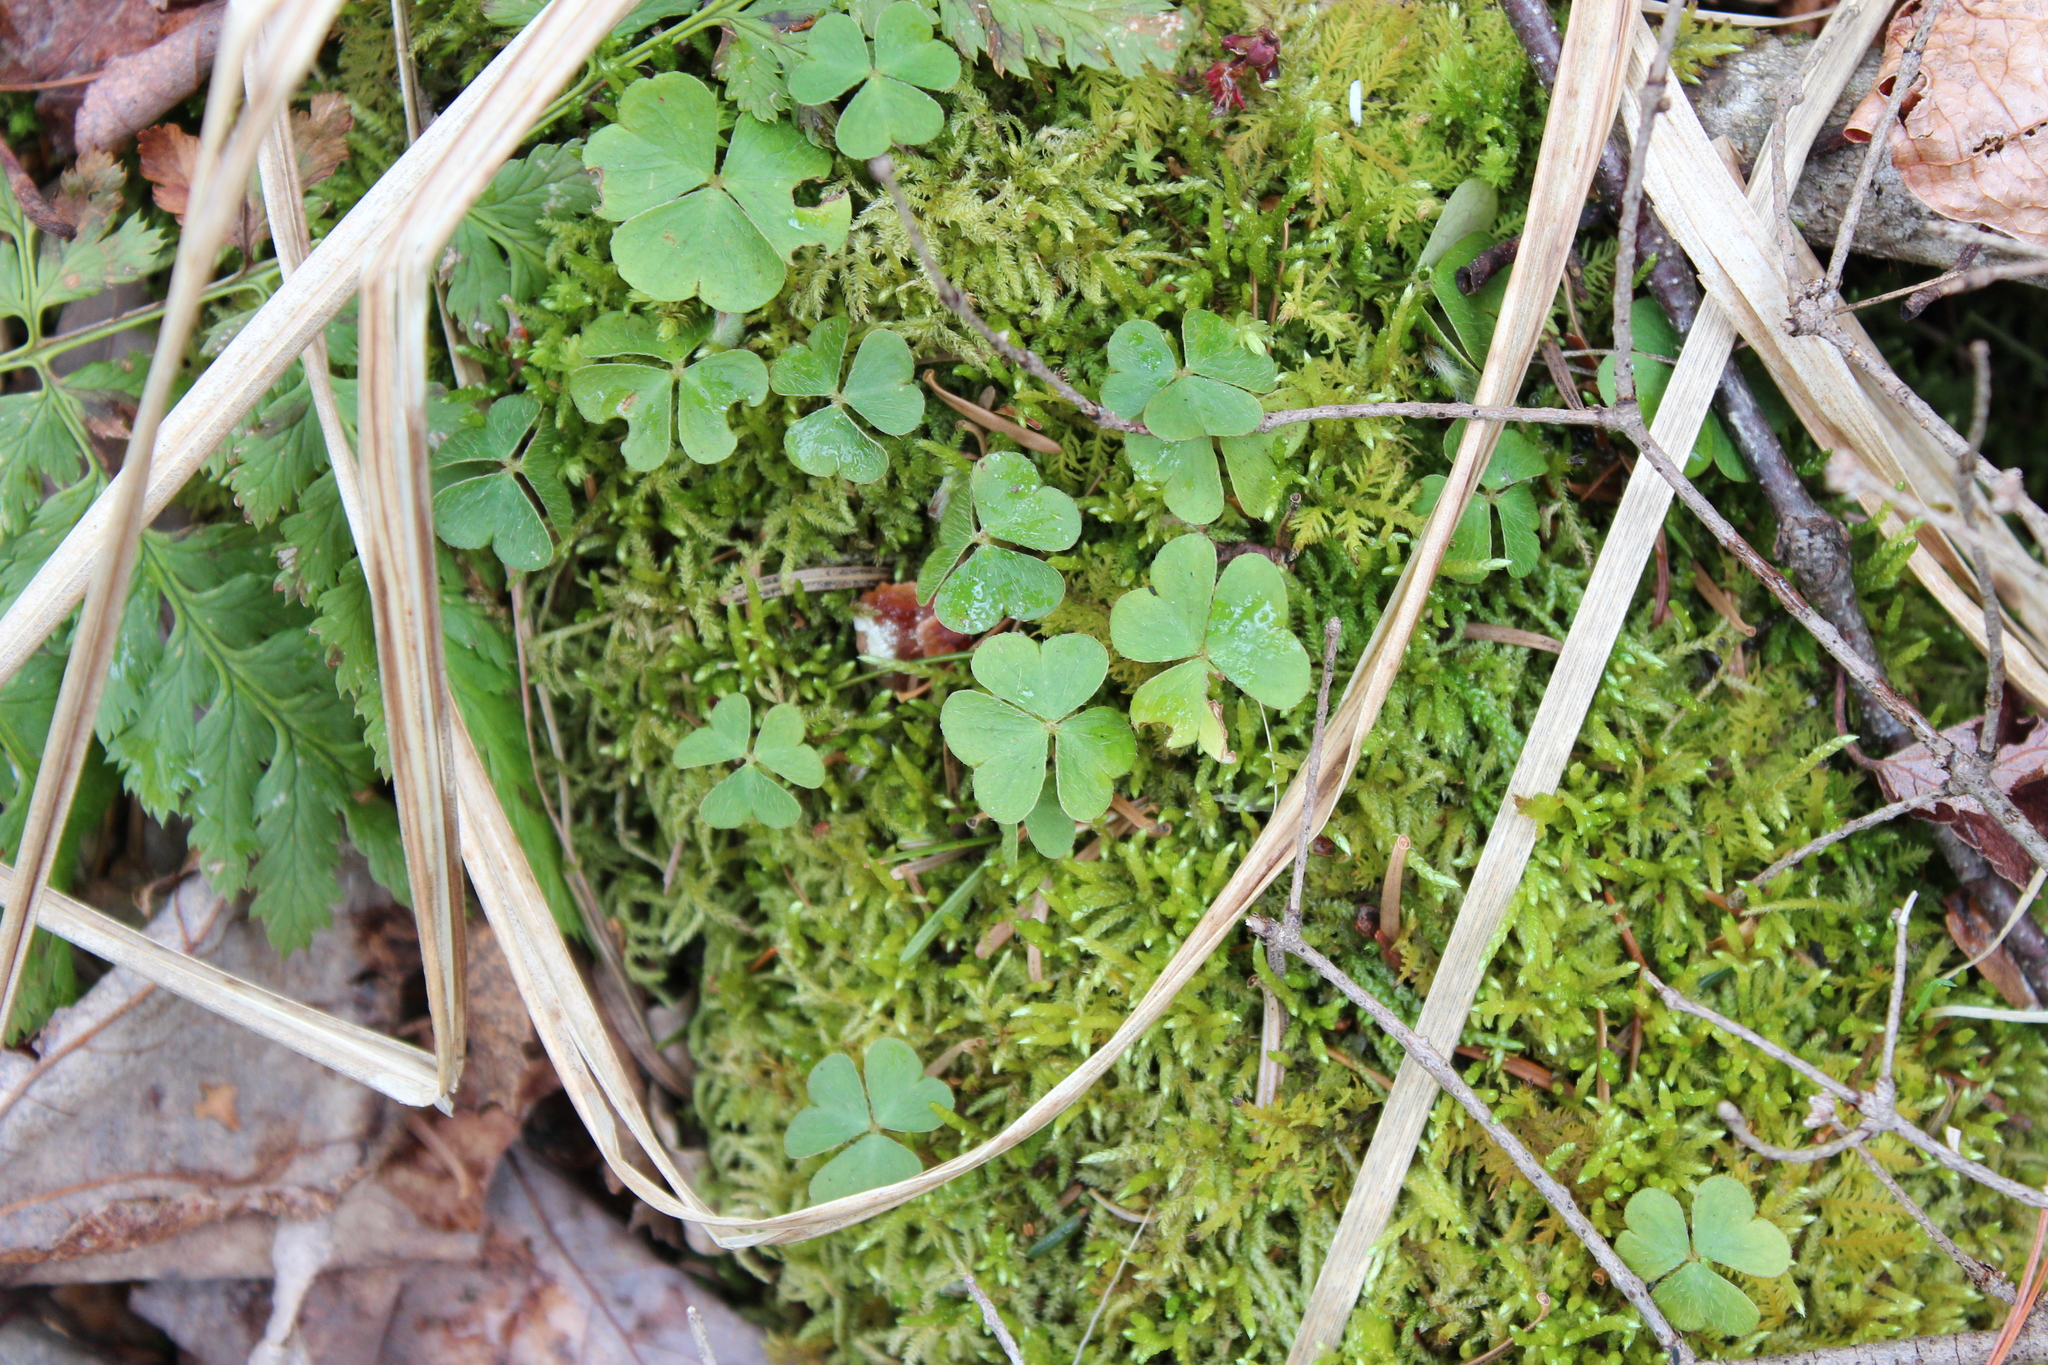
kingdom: Plantae
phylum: Tracheophyta
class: Magnoliopsida
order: Oxalidales
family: Oxalidaceae
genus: Oxalis
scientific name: Oxalis montana
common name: American wood-sorrel
